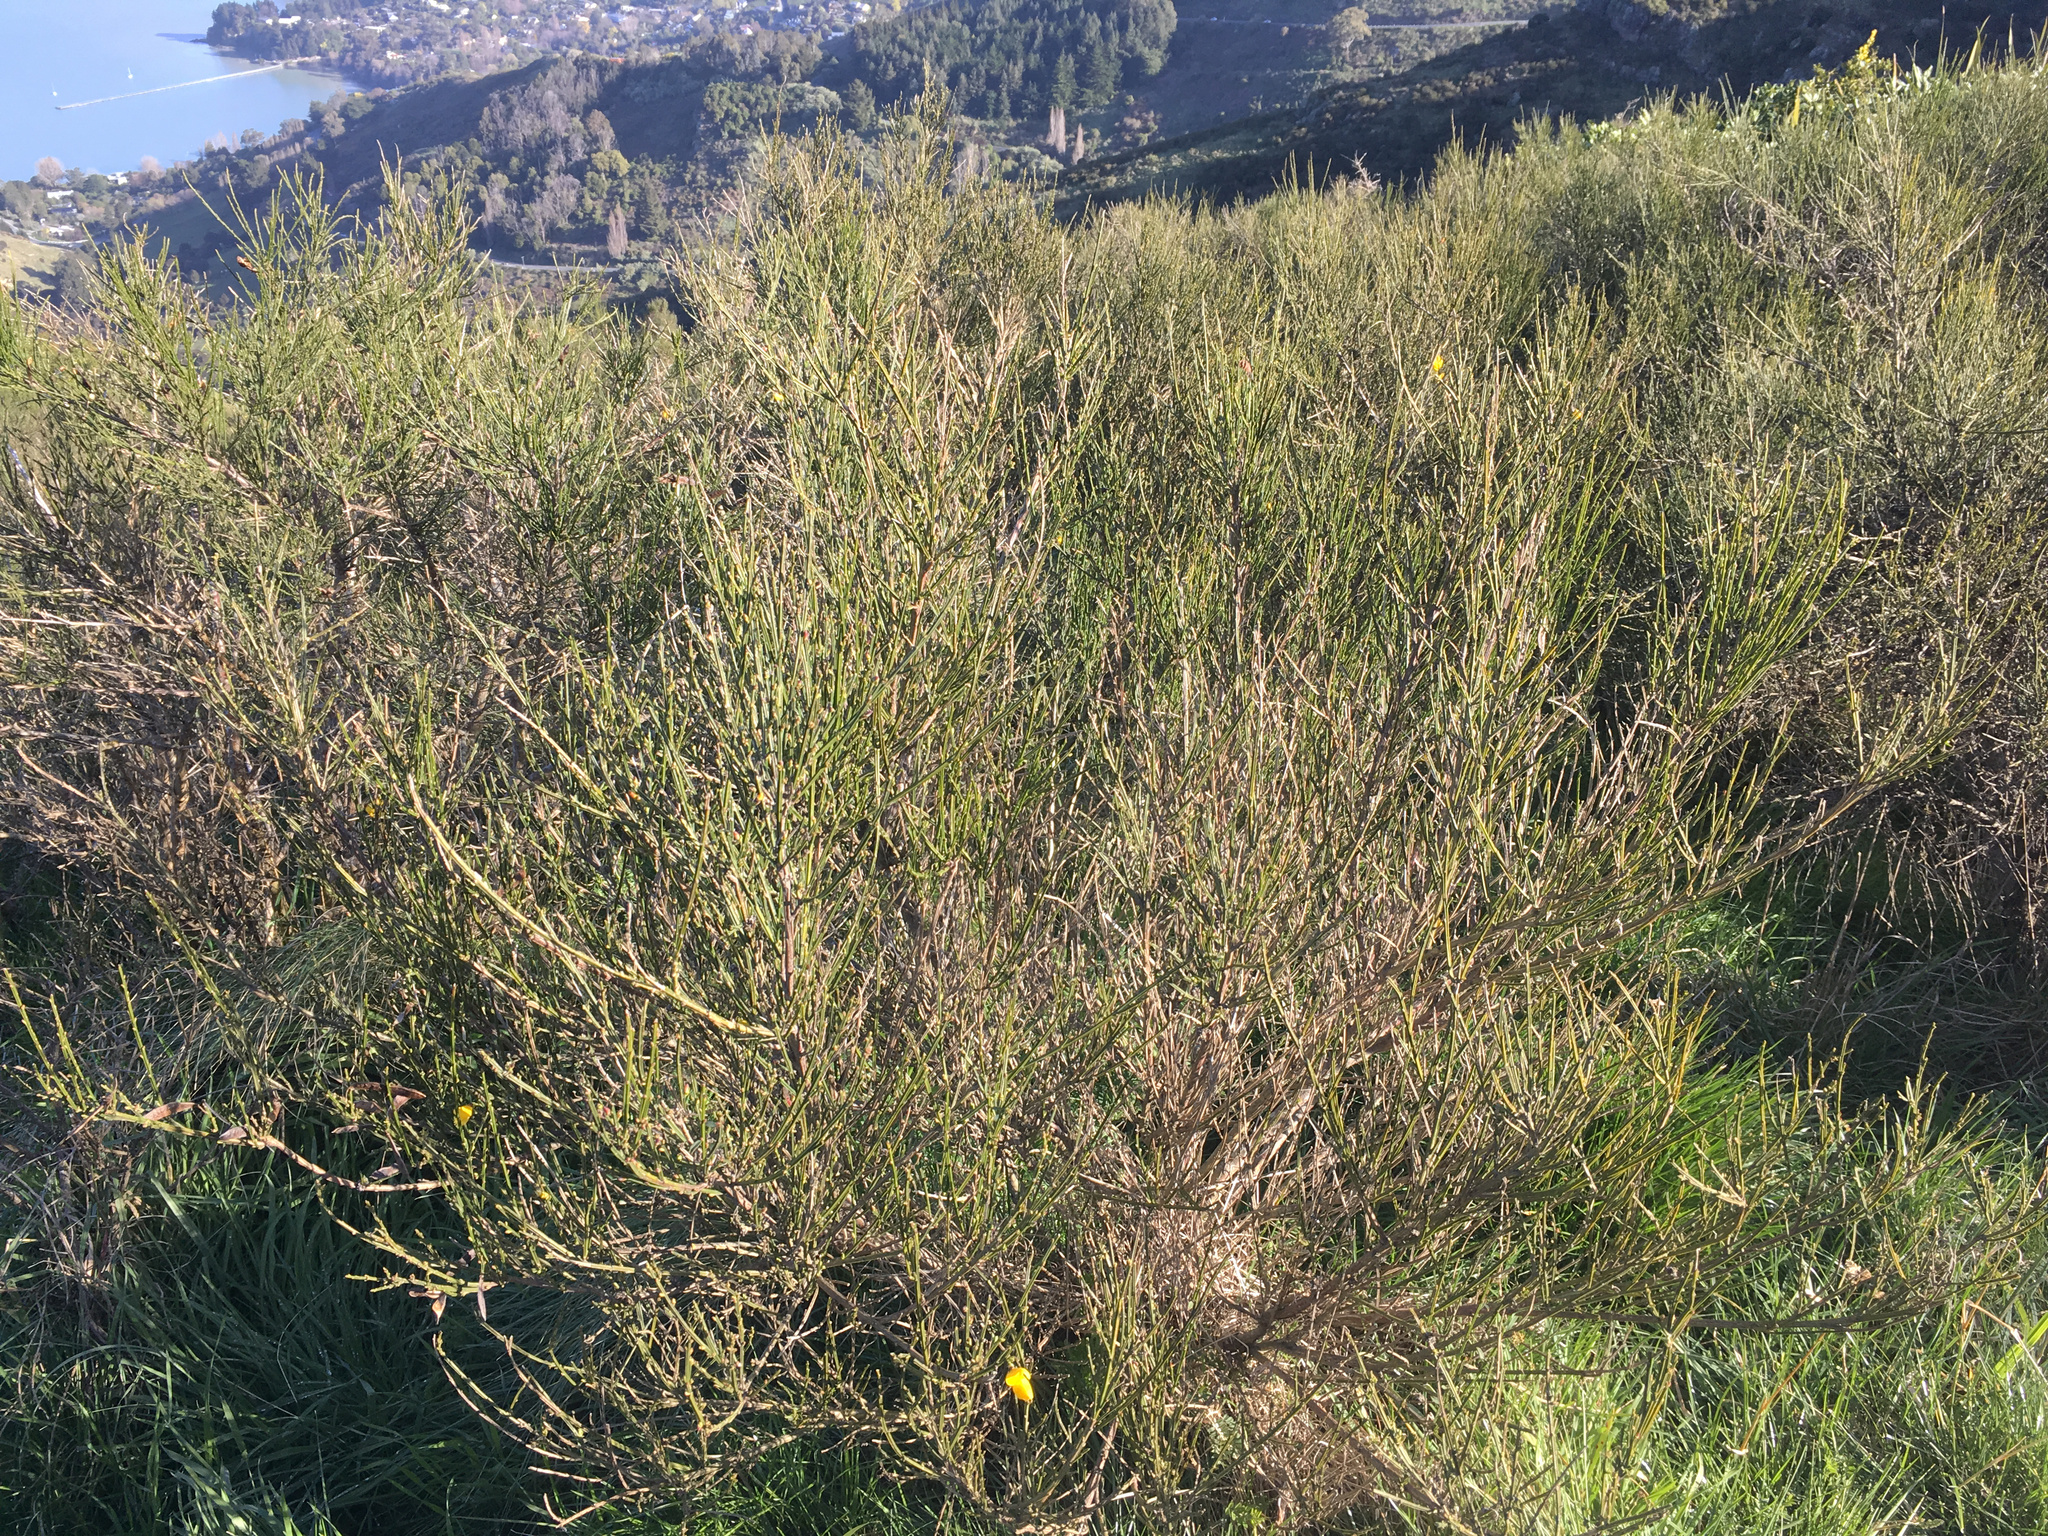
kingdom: Plantae
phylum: Tracheophyta
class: Magnoliopsida
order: Fabales
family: Fabaceae
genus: Cytisus
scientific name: Cytisus scoparius
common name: Scotch broom
